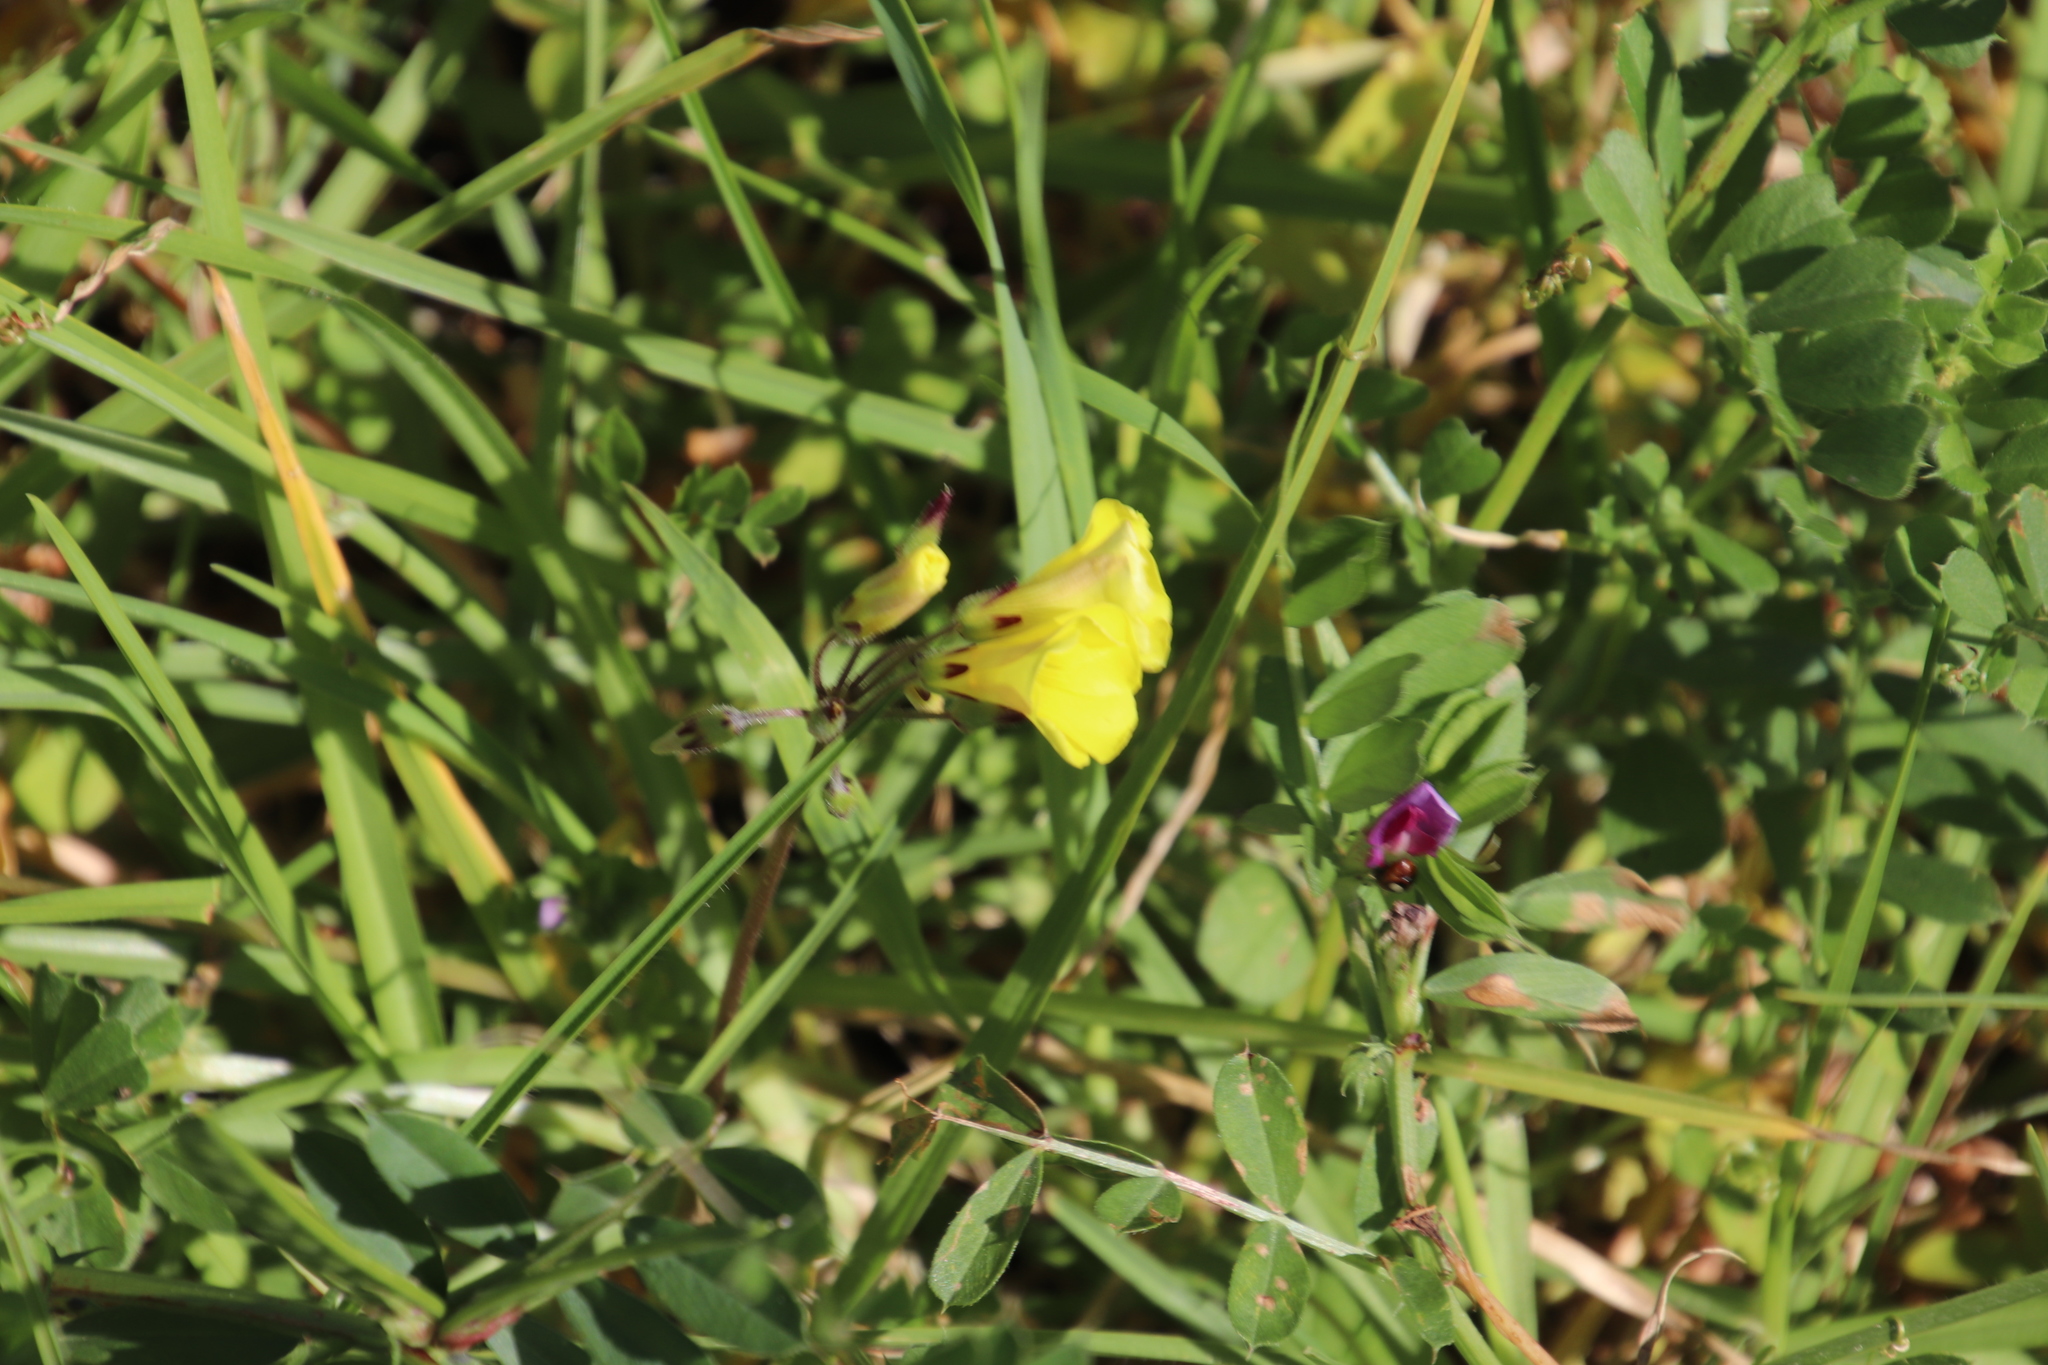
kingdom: Plantae
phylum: Tracheophyta
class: Magnoliopsida
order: Oxalidales
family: Oxalidaceae
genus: Oxalis
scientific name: Oxalis pes-caprae
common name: Bermuda-buttercup
